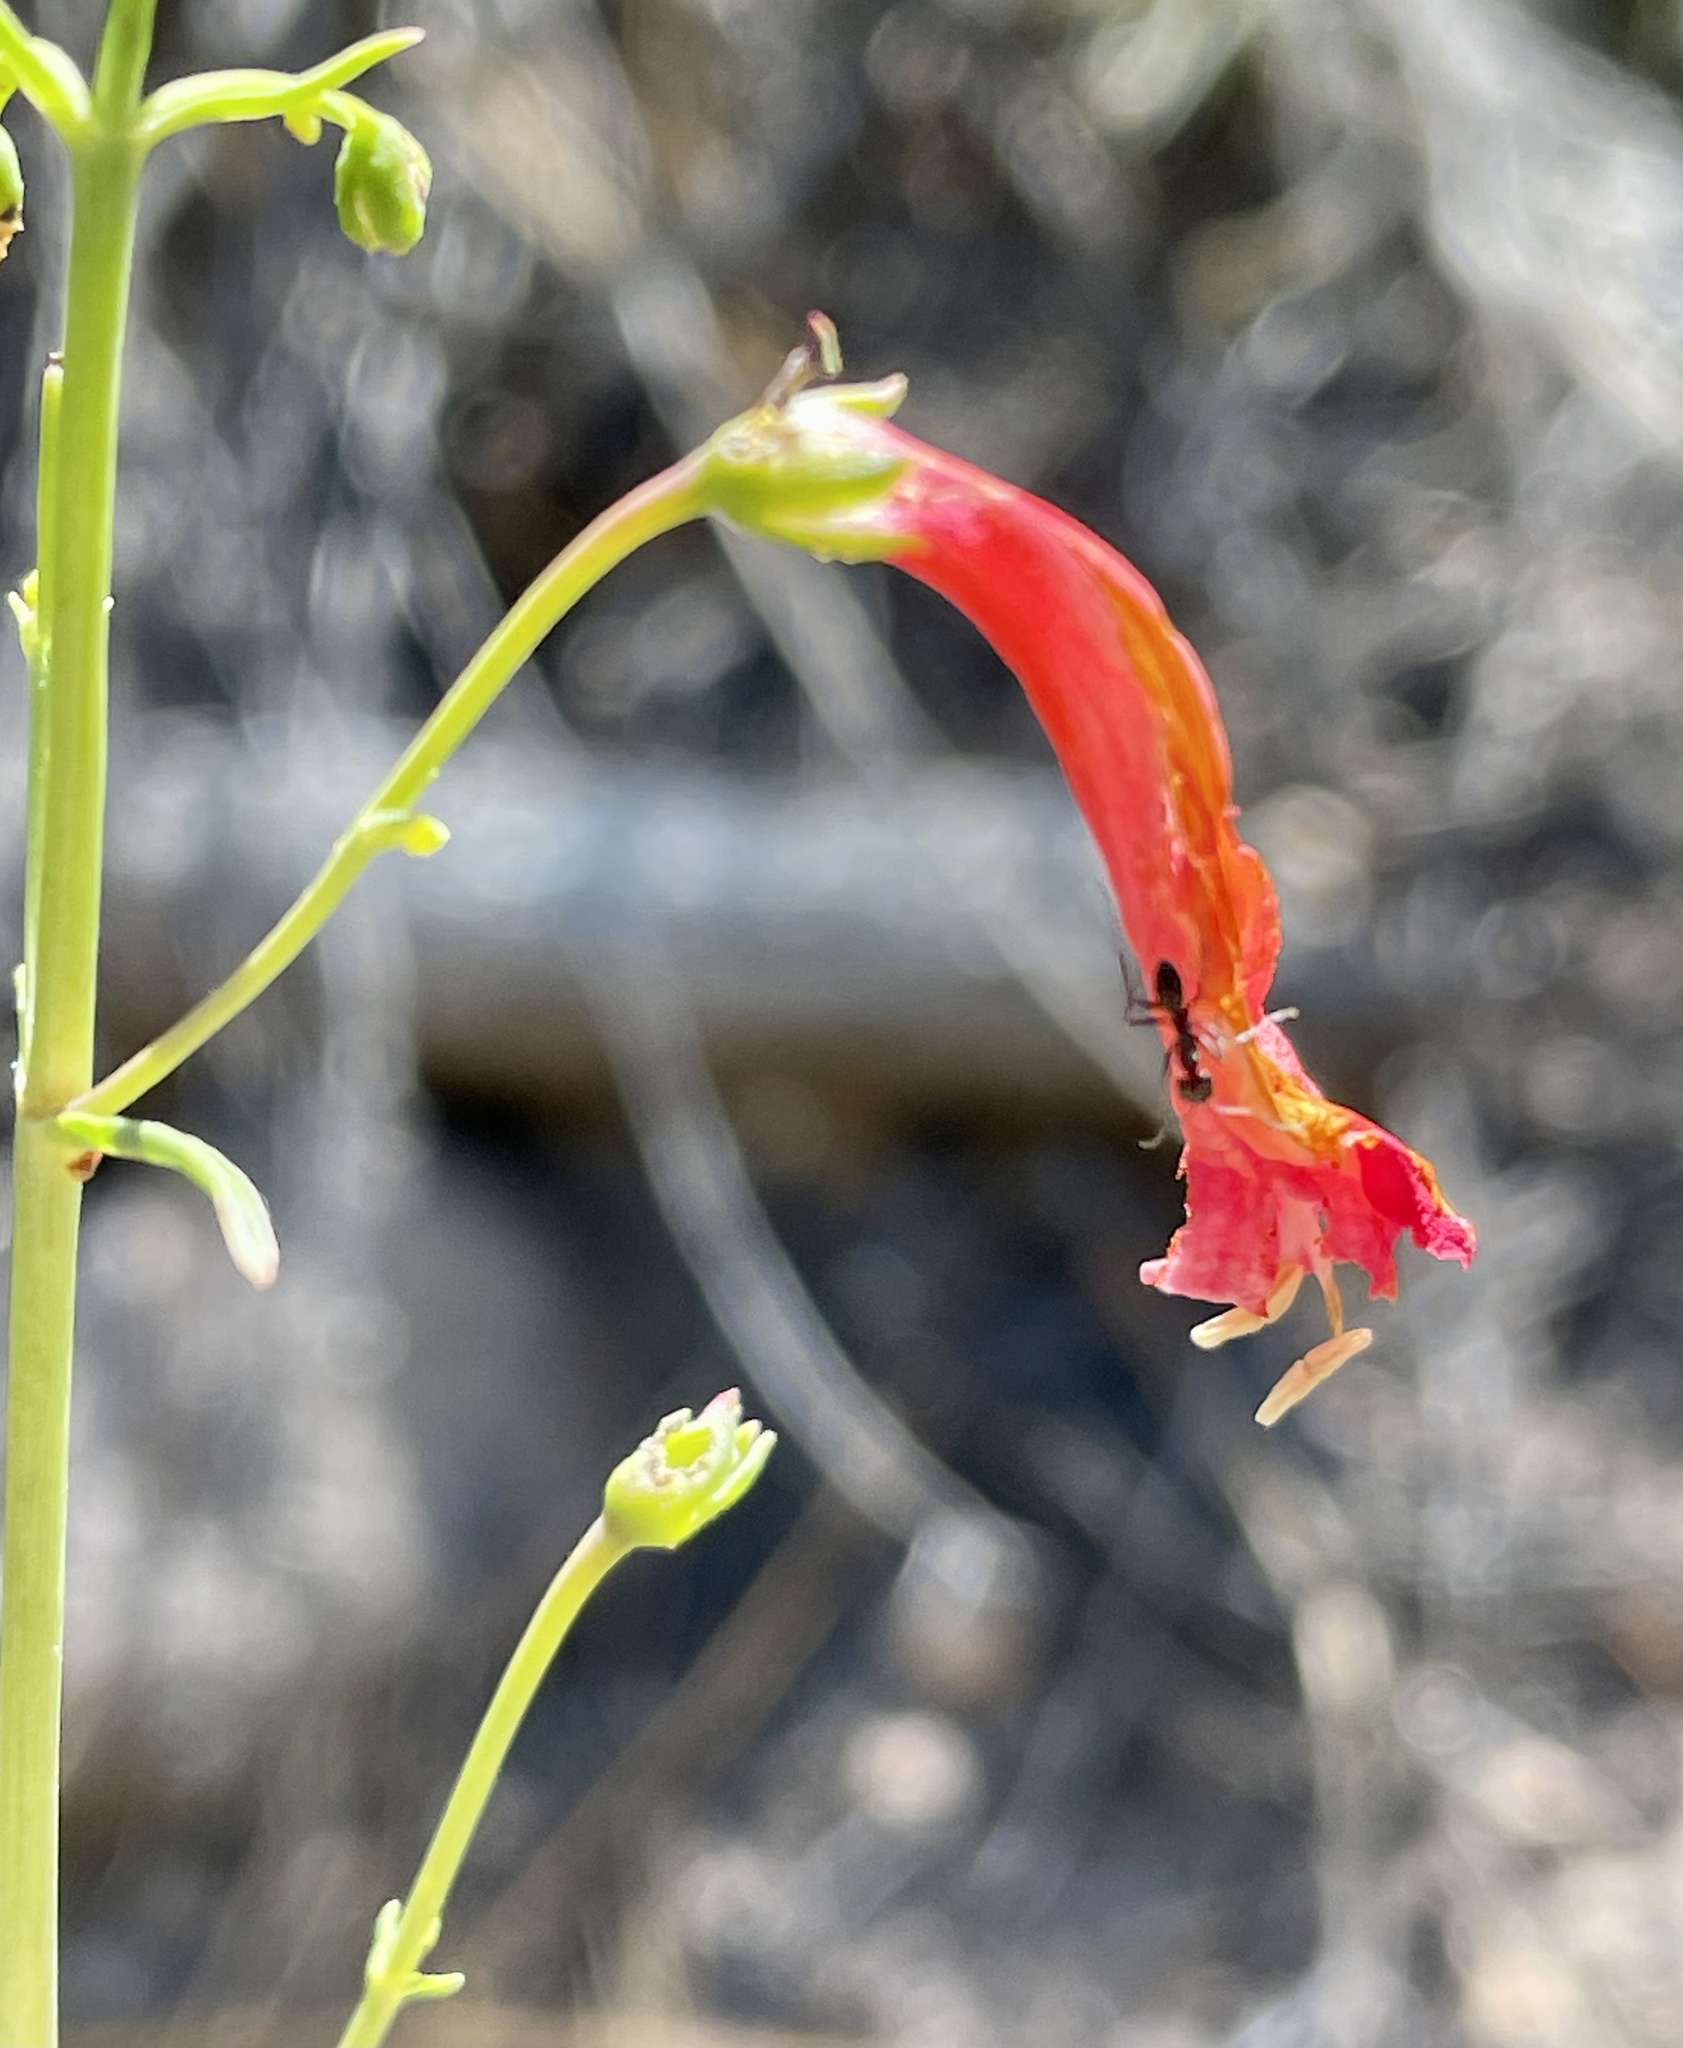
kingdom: Plantae
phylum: Tracheophyta
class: Magnoliopsida
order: Lamiales
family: Plantaginaceae
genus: Penstemon
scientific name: Penstemon barbatus
